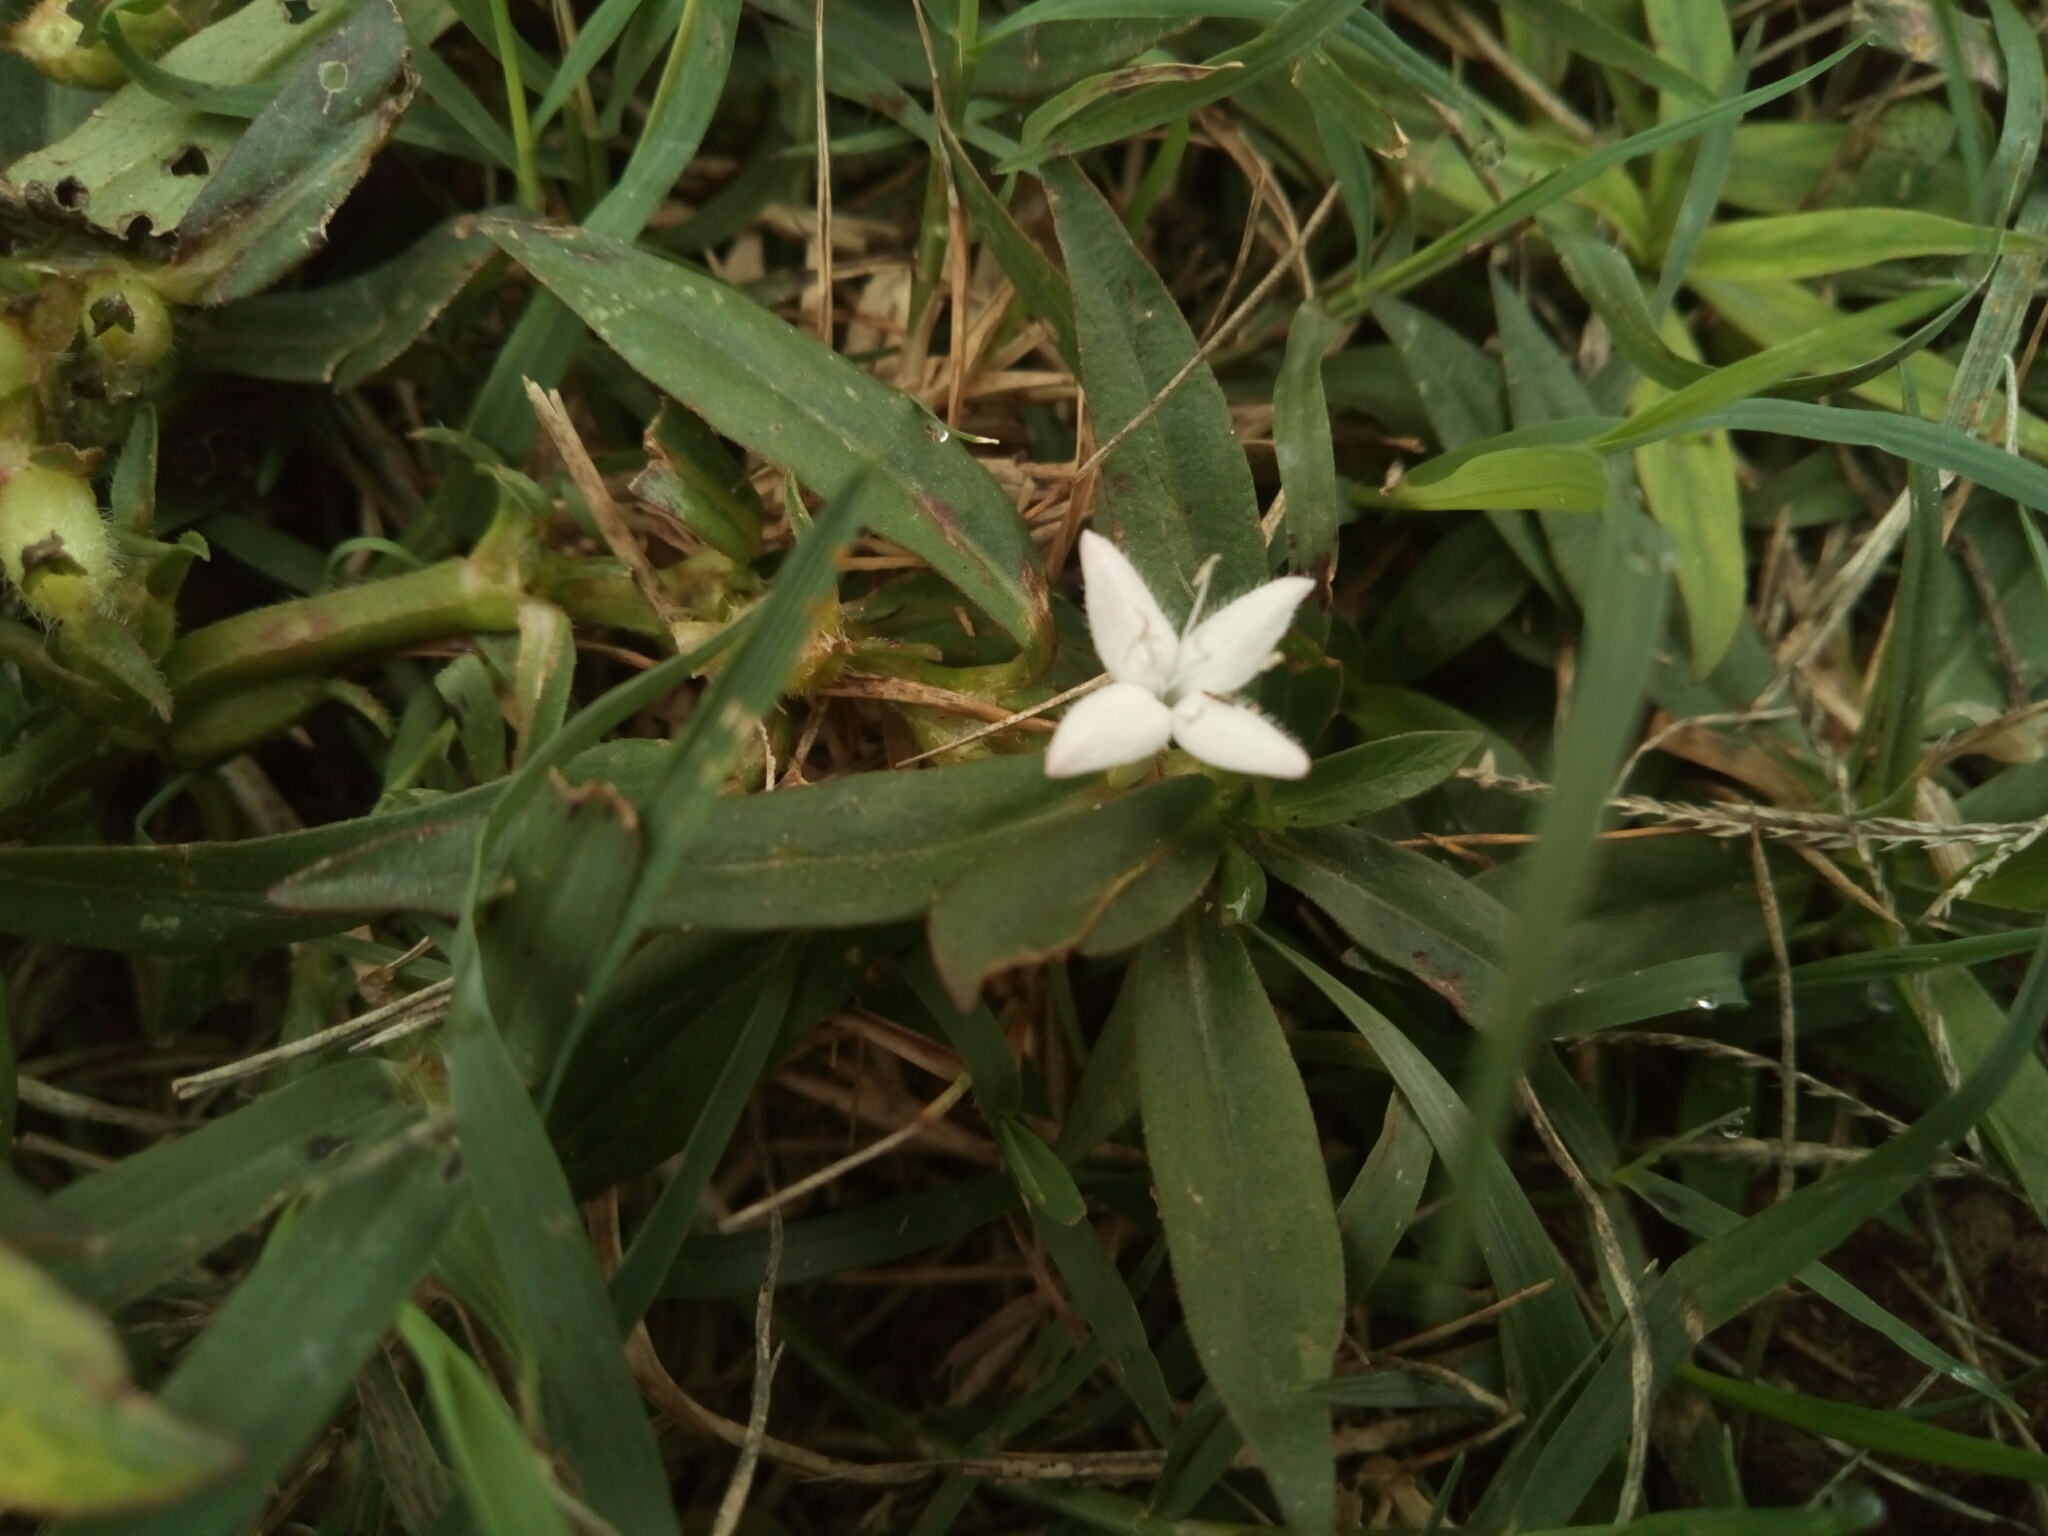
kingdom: Plantae
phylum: Tracheophyta
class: Magnoliopsida
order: Gentianales
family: Rubiaceae
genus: Diodia
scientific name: Diodia virginiana
